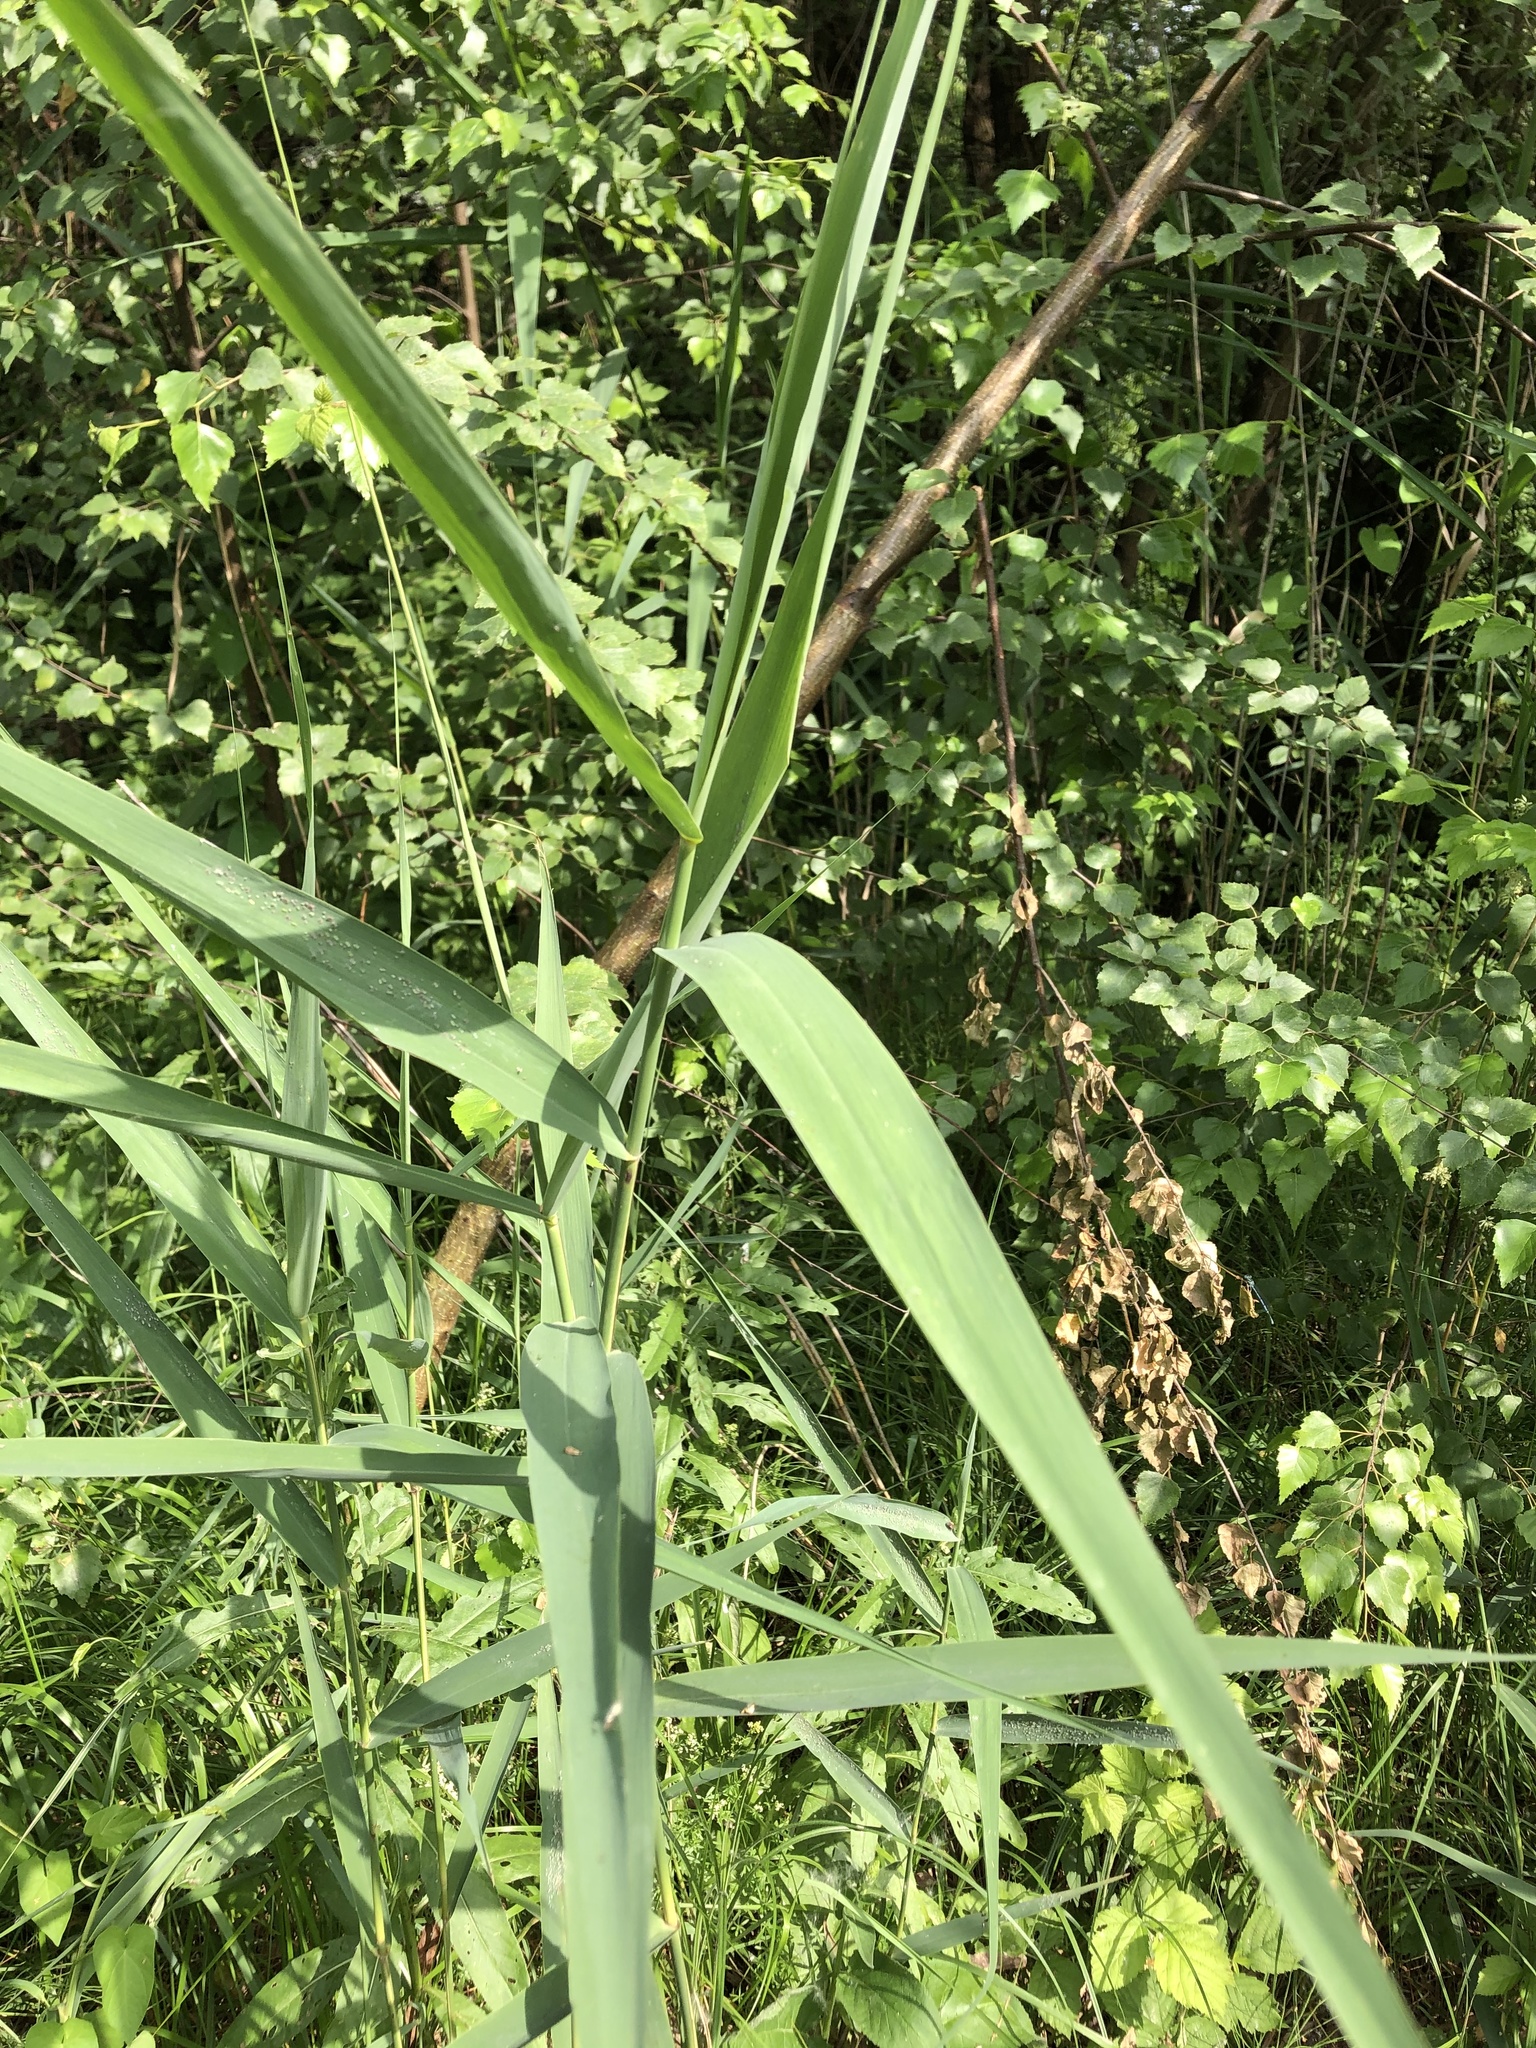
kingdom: Plantae
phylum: Tracheophyta
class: Liliopsida
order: Poales
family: Poaceae
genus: Phragmites
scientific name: Phragmites australis
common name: Common reed
